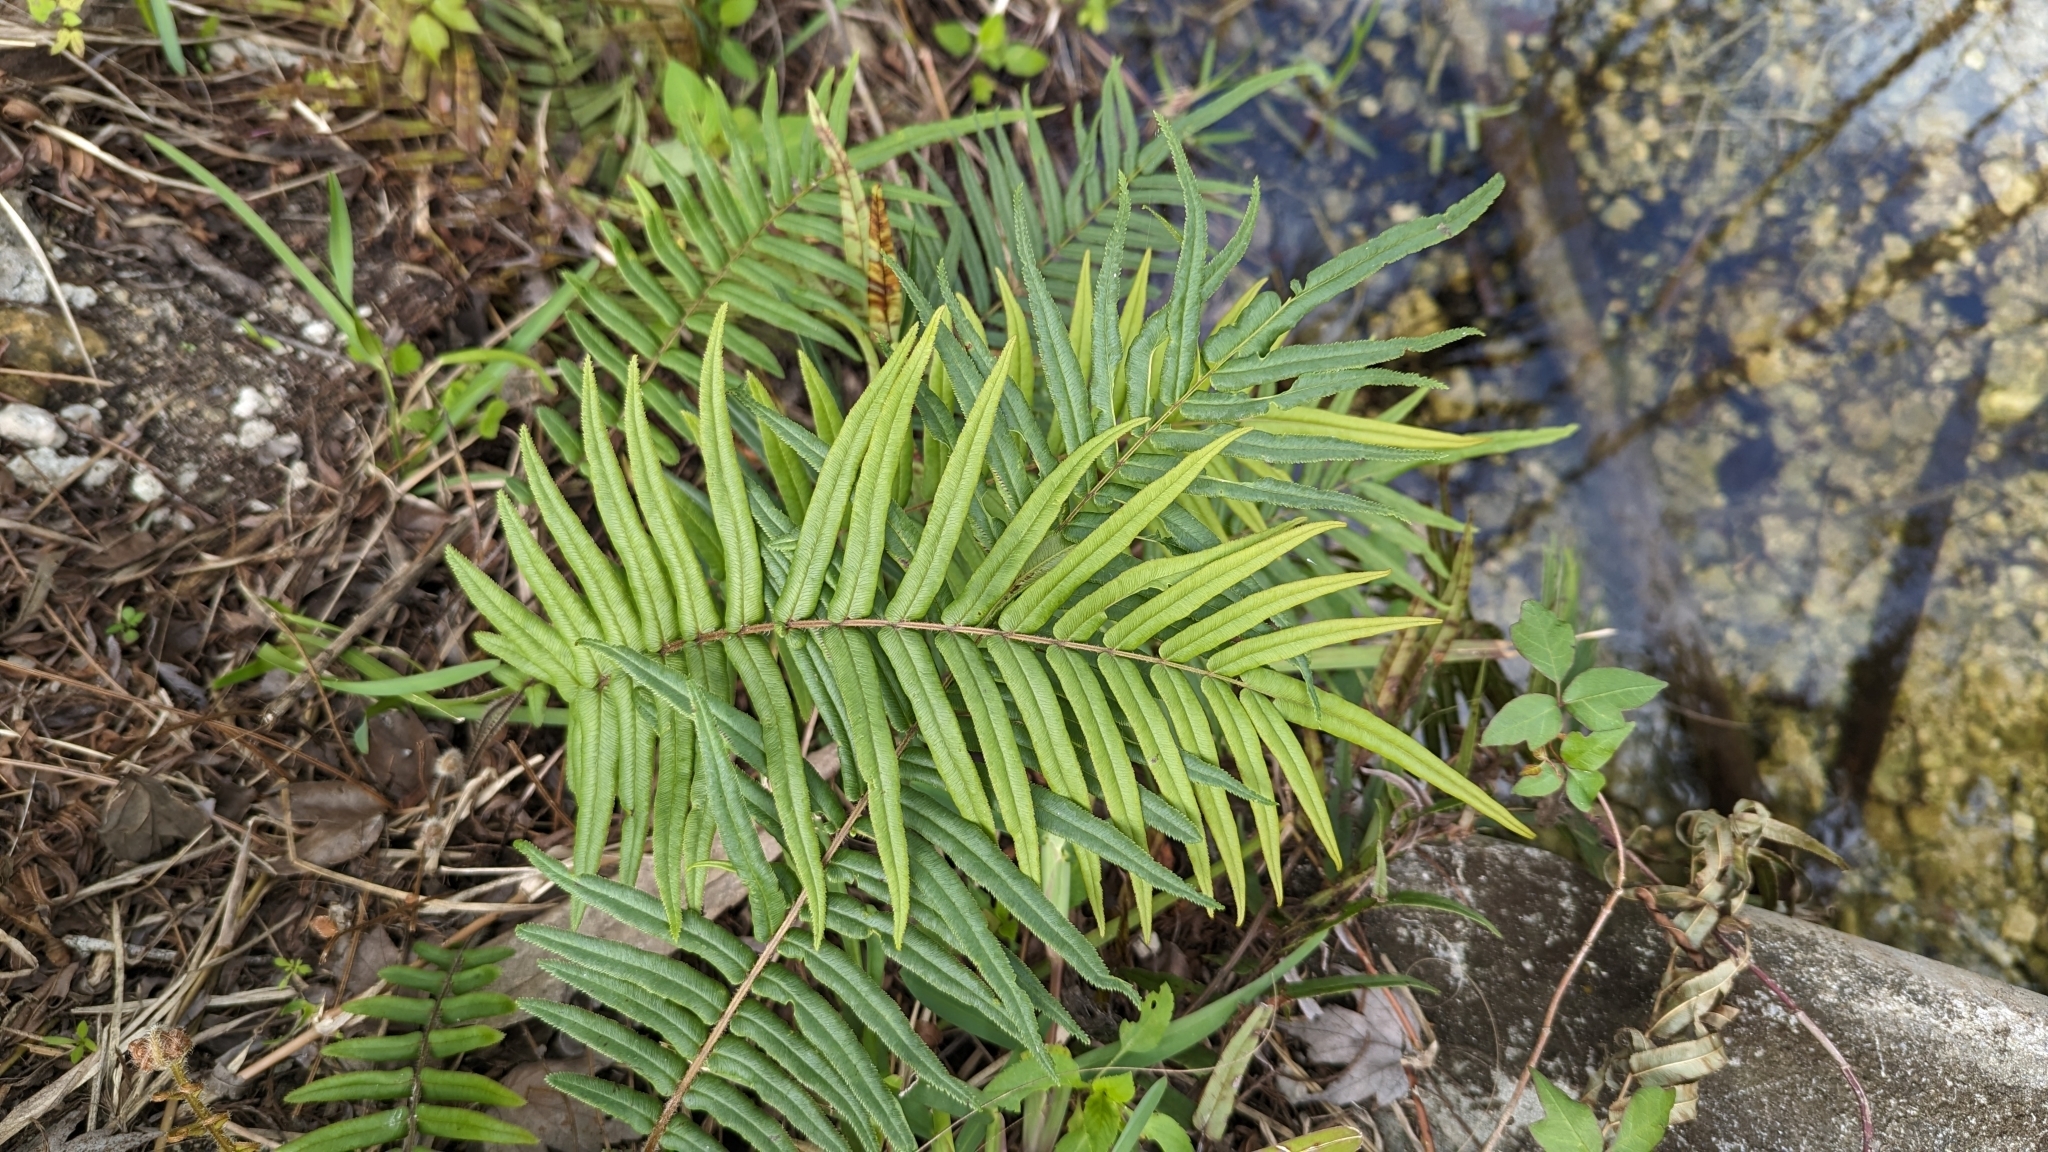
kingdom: Plantae
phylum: Tracheophyta
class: Polypodiopsida
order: Polypodiales
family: Pteridaceae
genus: Pteris
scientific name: Pteris vittata
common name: Ladder brake
